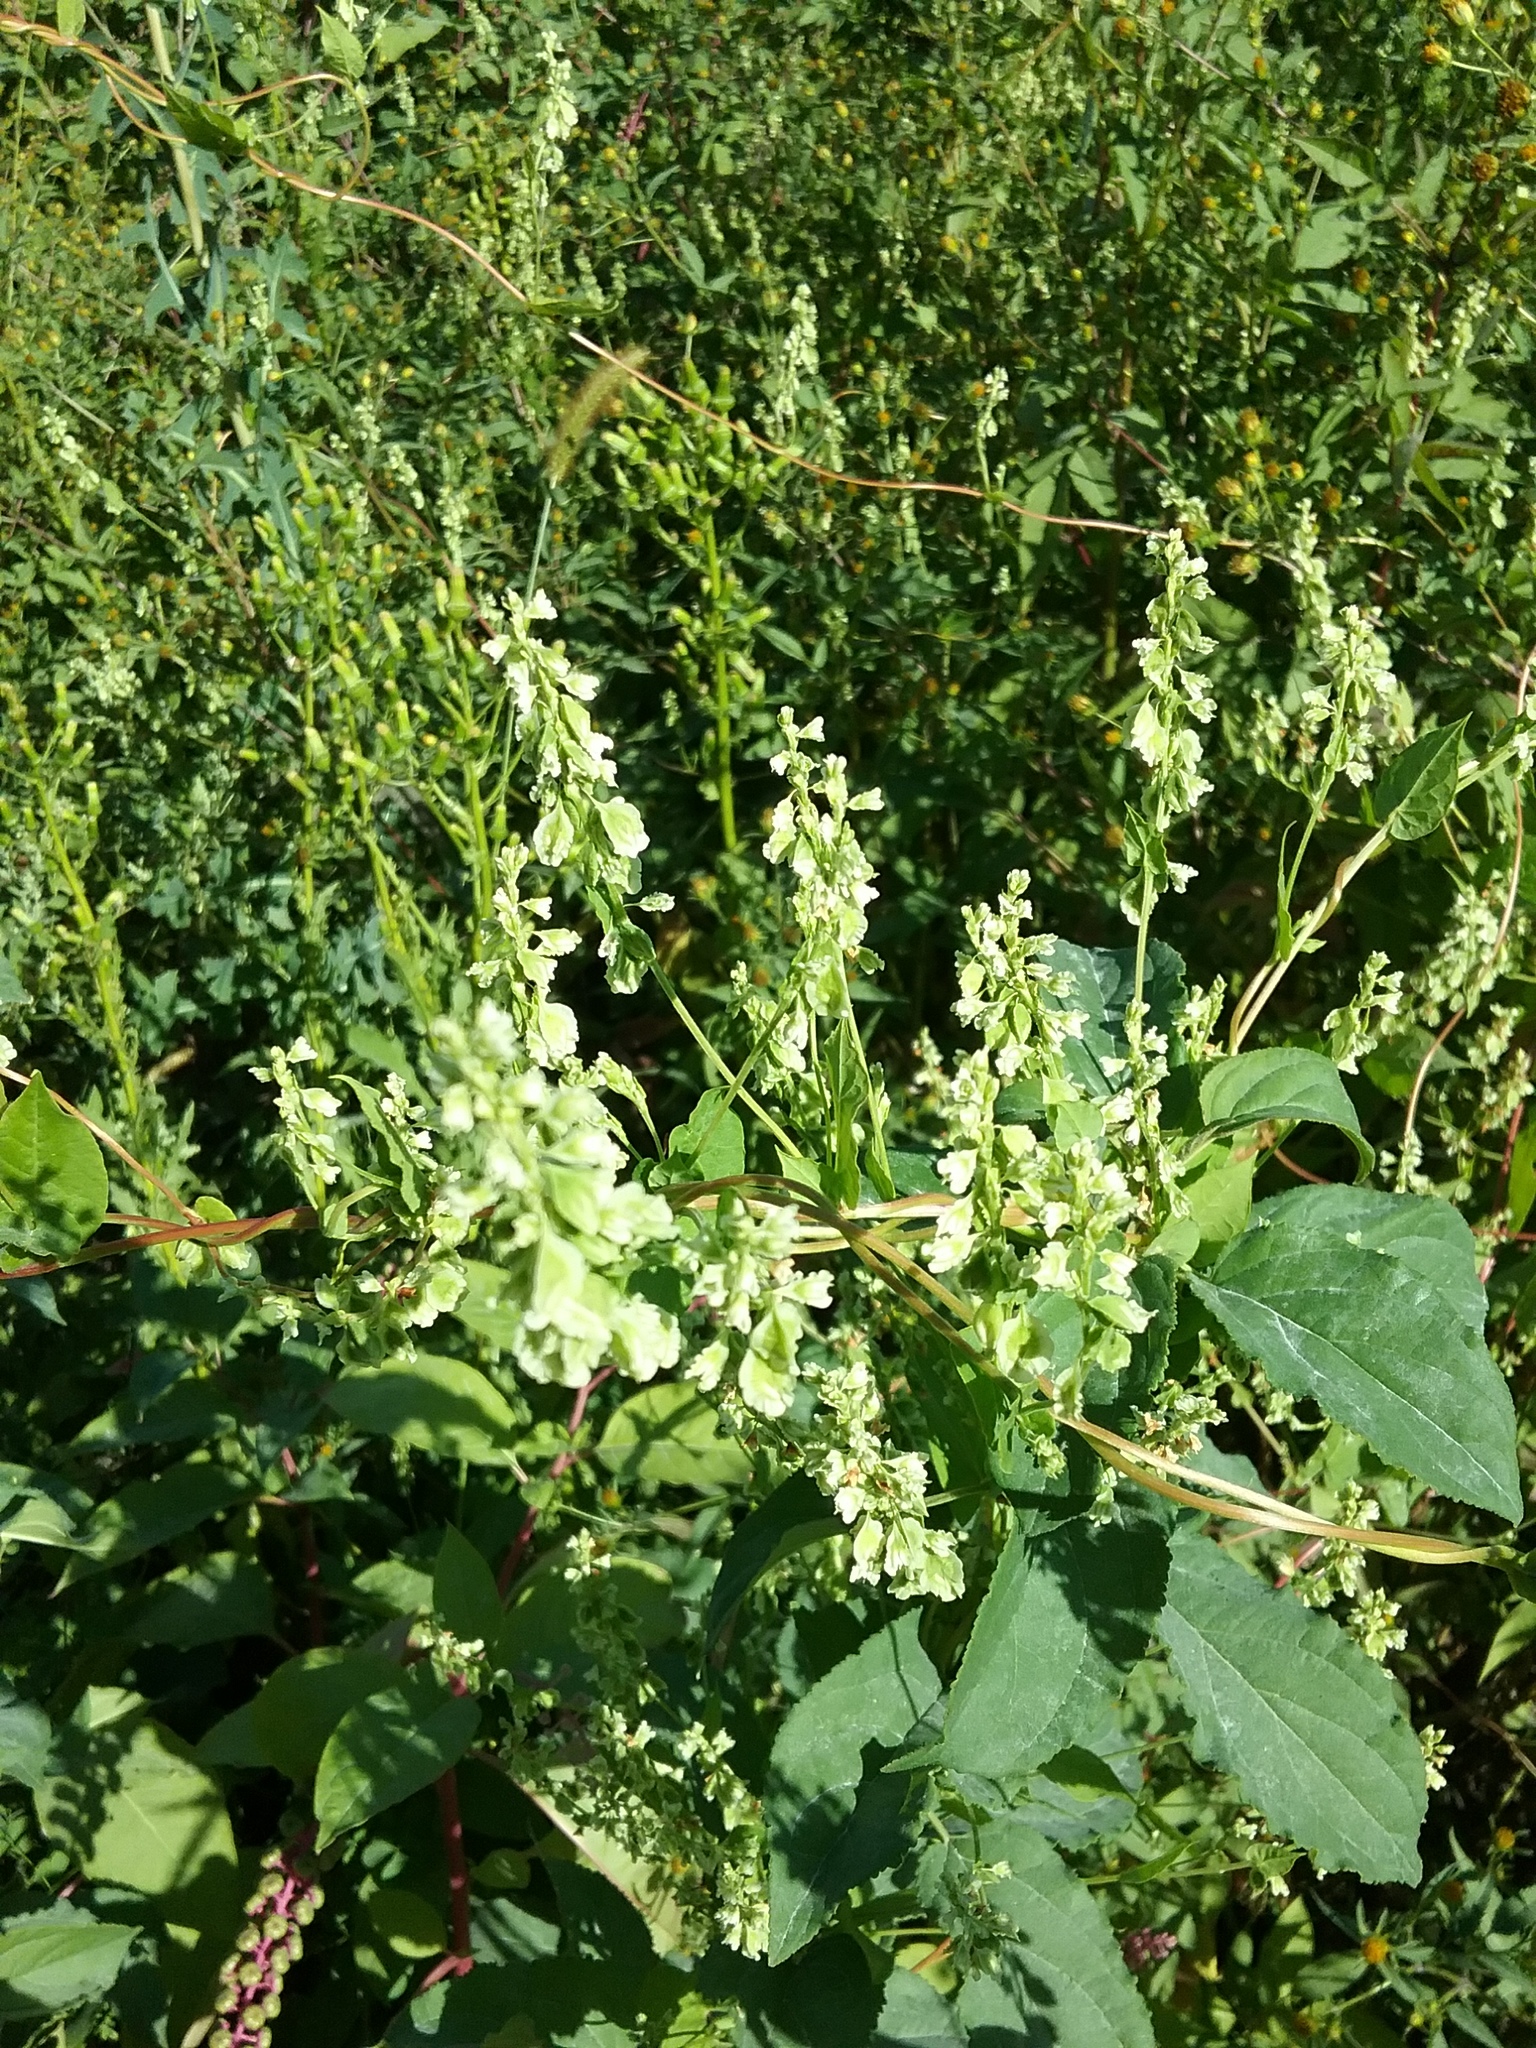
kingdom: Plantae
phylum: Tracheophyta
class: Magnoliopsida
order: Caryophyllales
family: Polygonaceae
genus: Fallopia
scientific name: Fallopia scandens
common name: Climbing false buckwheat
